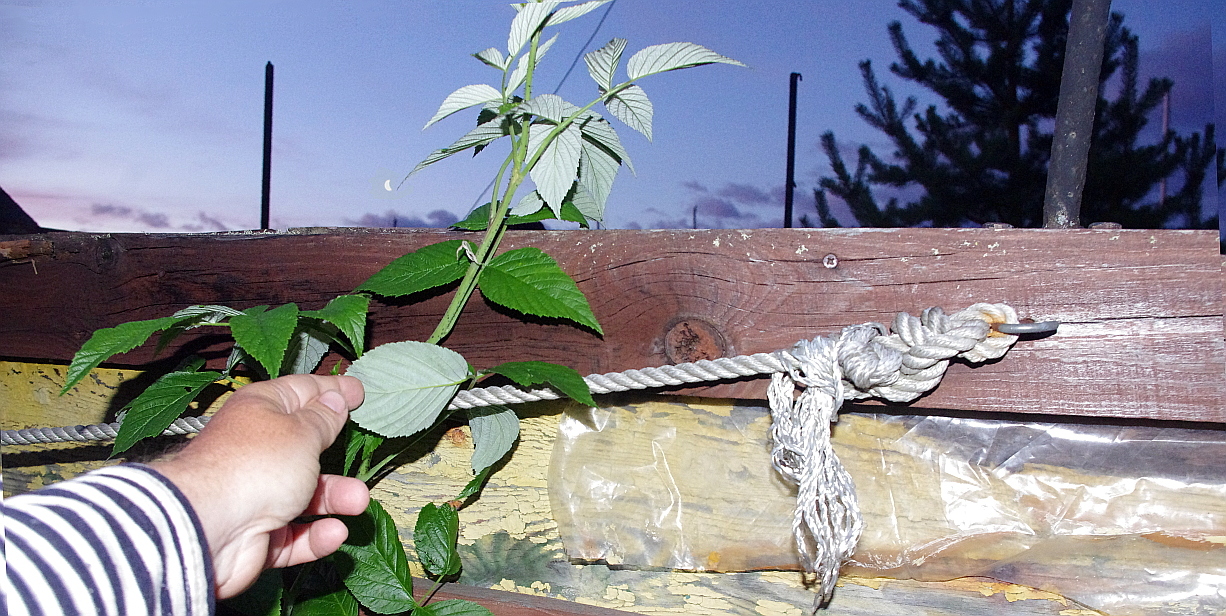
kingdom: Plantae
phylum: Tracheophyta
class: Magnoliopsida
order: Rosales
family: Rosaceae
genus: Rubus
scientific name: Rubus idaeus
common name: Raspberry
